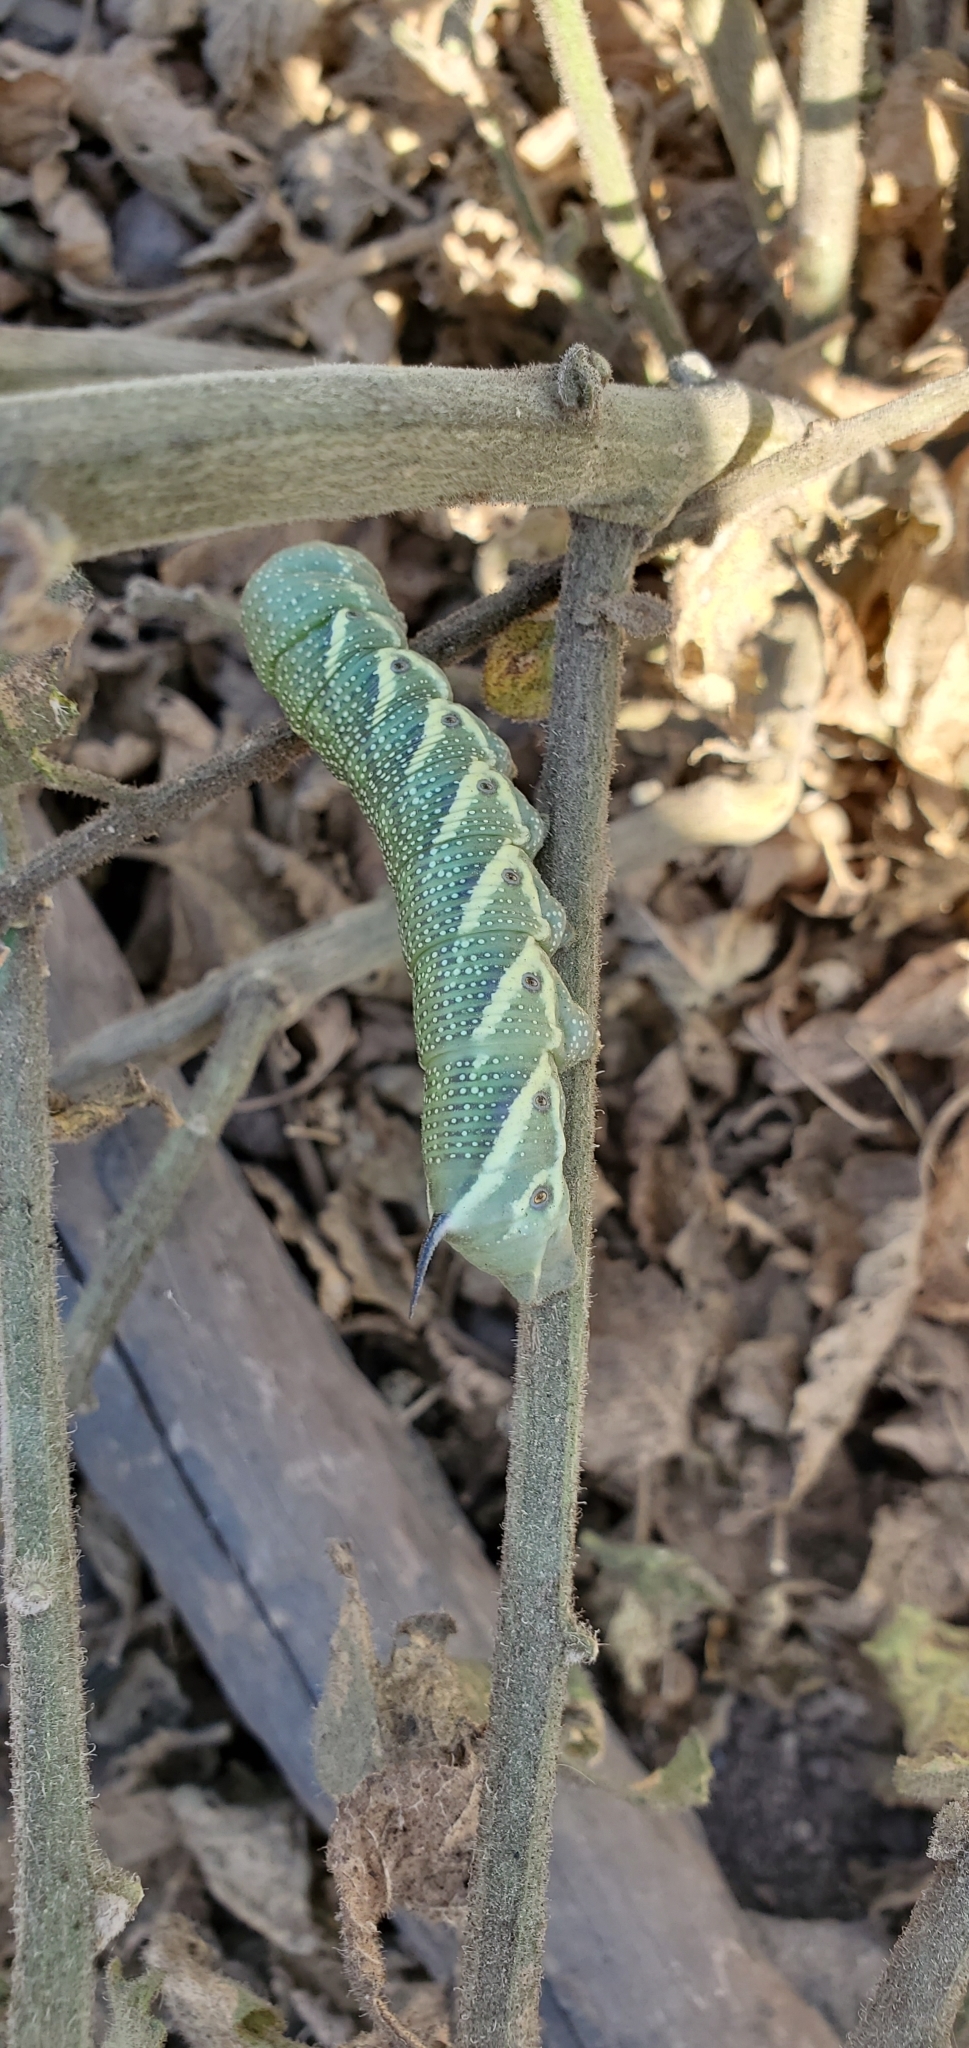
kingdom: Animalia
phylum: Arthropoda
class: Insecta
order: Lepidoptera
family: Sphingidae
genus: Manduca
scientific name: Manduca quinquemaculatus
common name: Five-spotted hawk-moth
